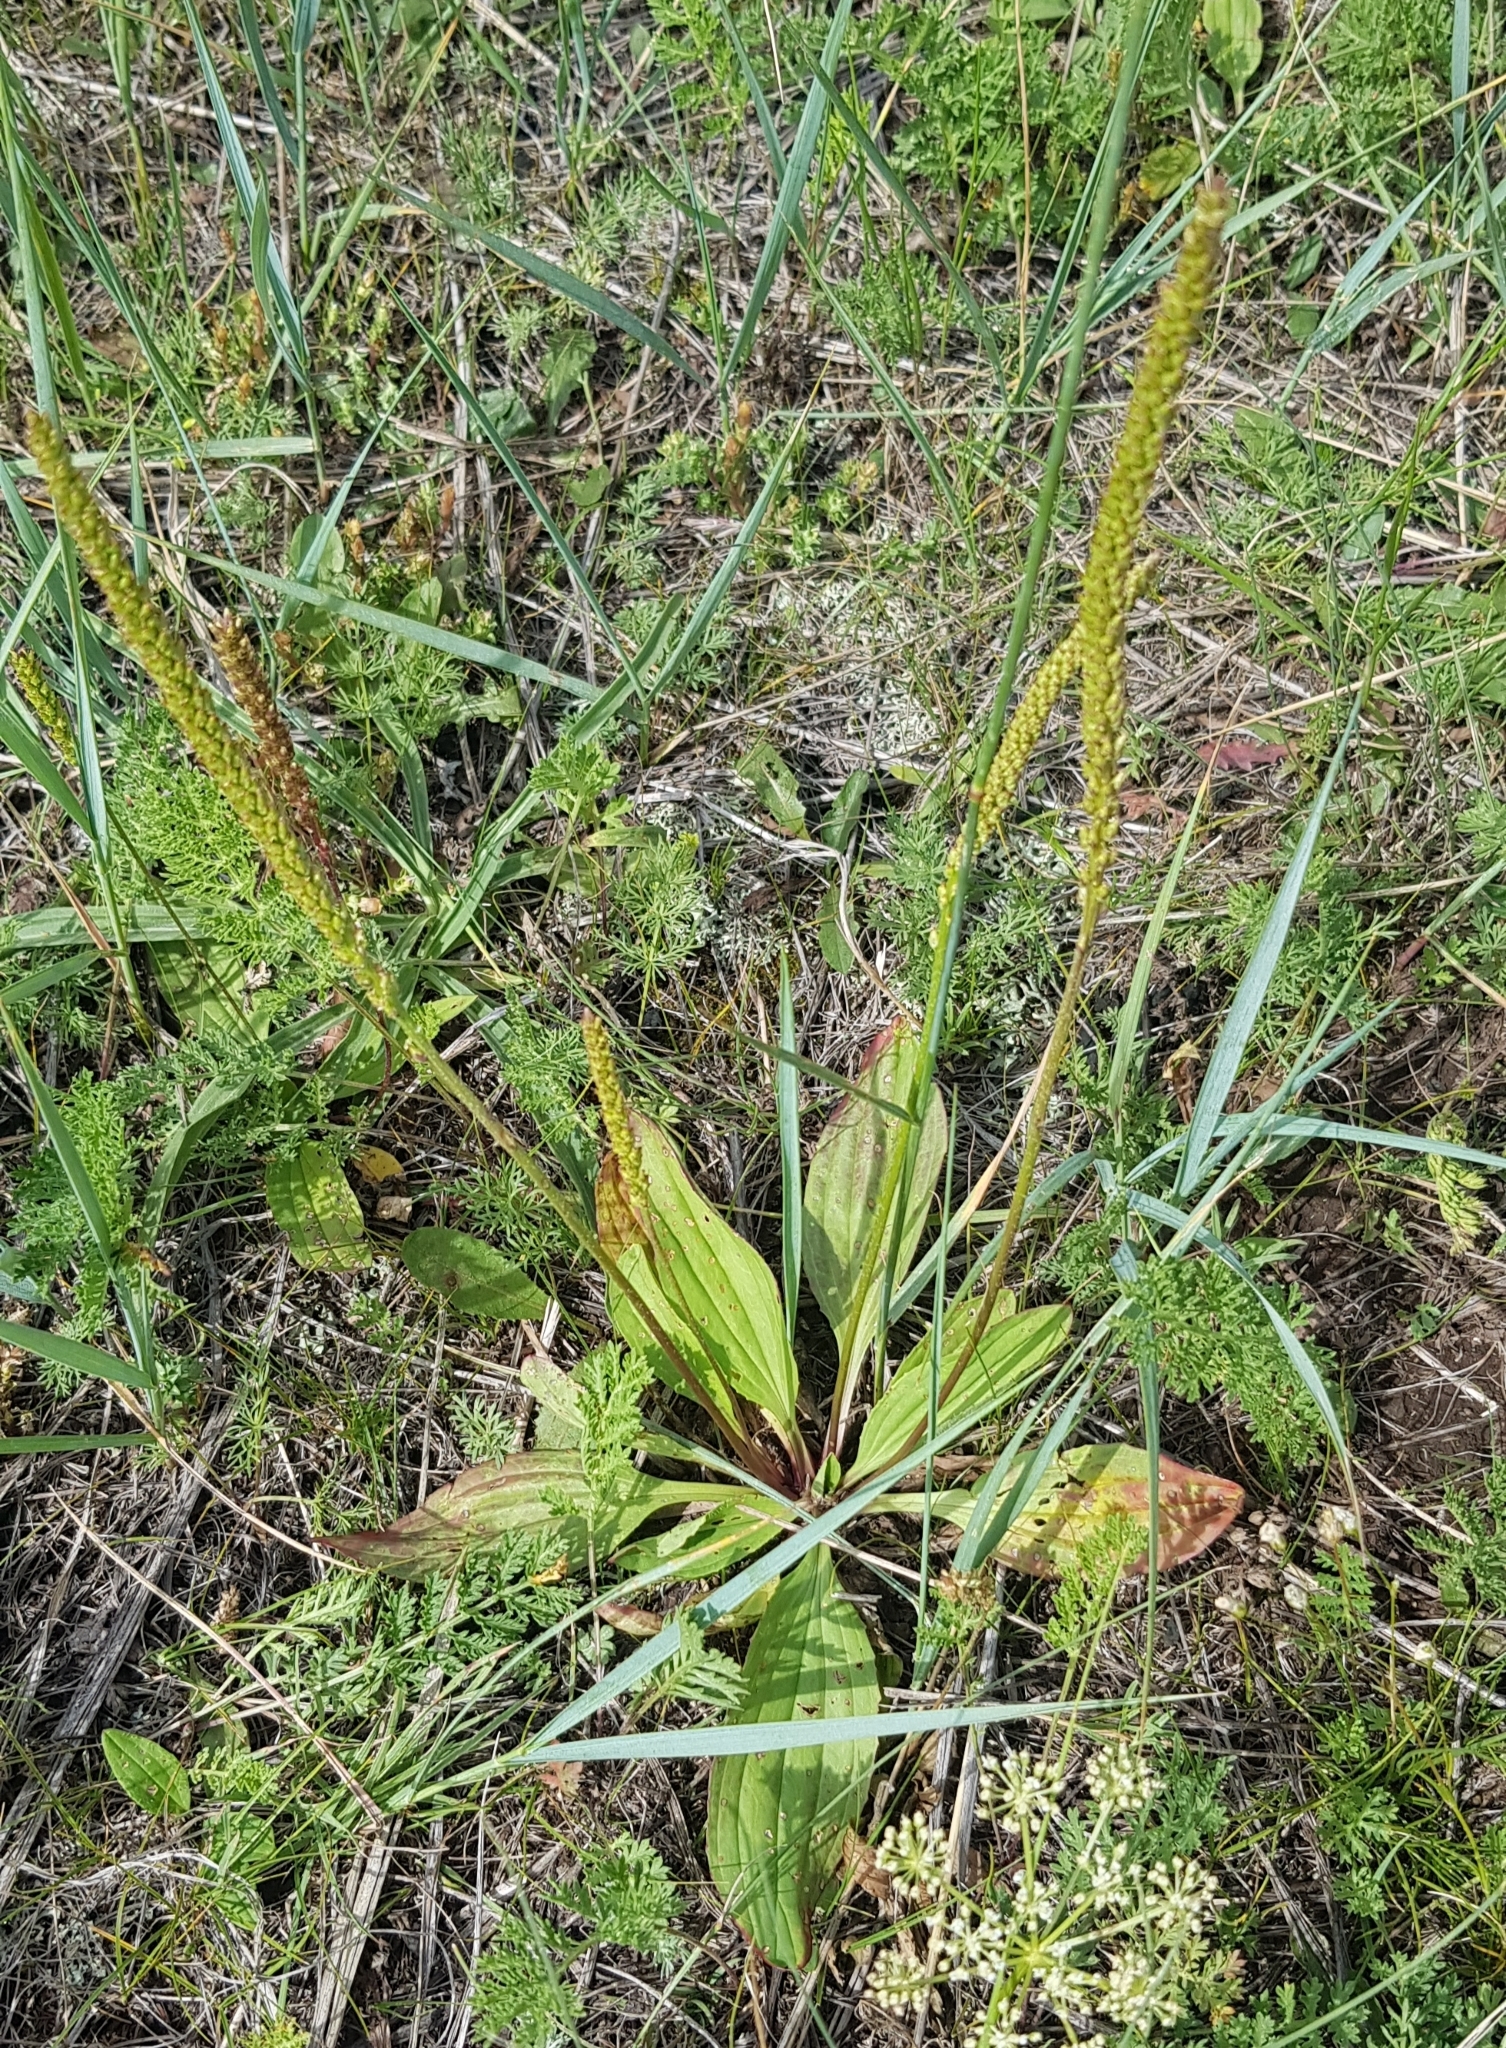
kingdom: Plantae
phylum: Tracheophyta
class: Magnoliopsida
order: Lamiales
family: Plantaginaceae
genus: Plantago
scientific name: Plantago urvillei
